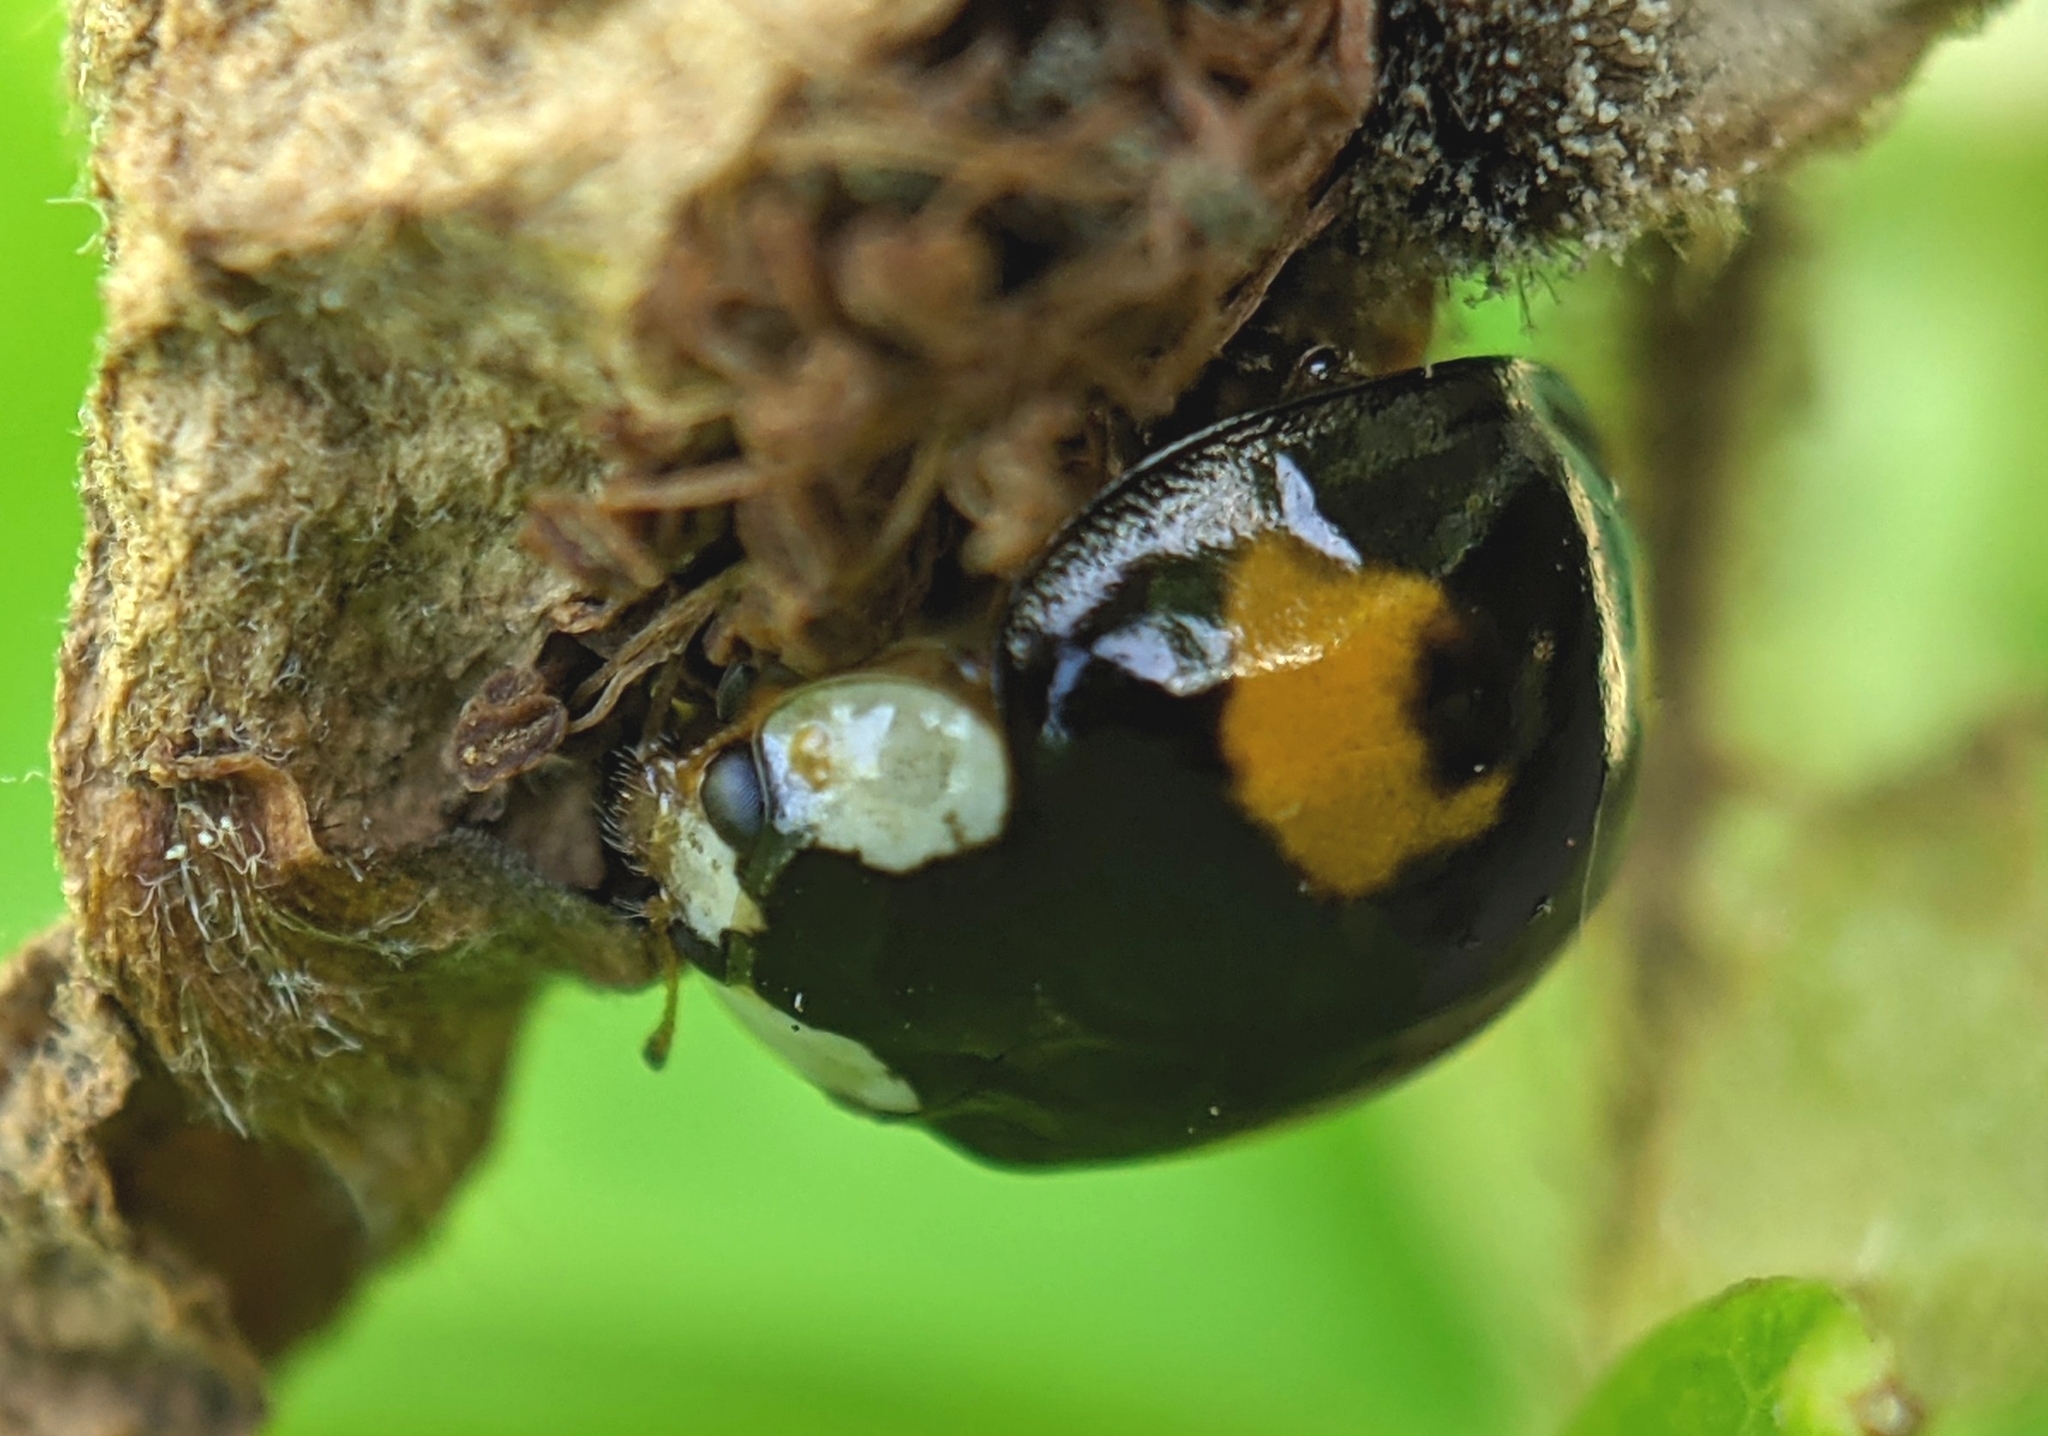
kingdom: Animalia
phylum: Arthropoda
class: Insecta
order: Coleoptera
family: Coccinellidae
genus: Harmonia
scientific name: Harmonia axyridis
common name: Harlequin ladybird
